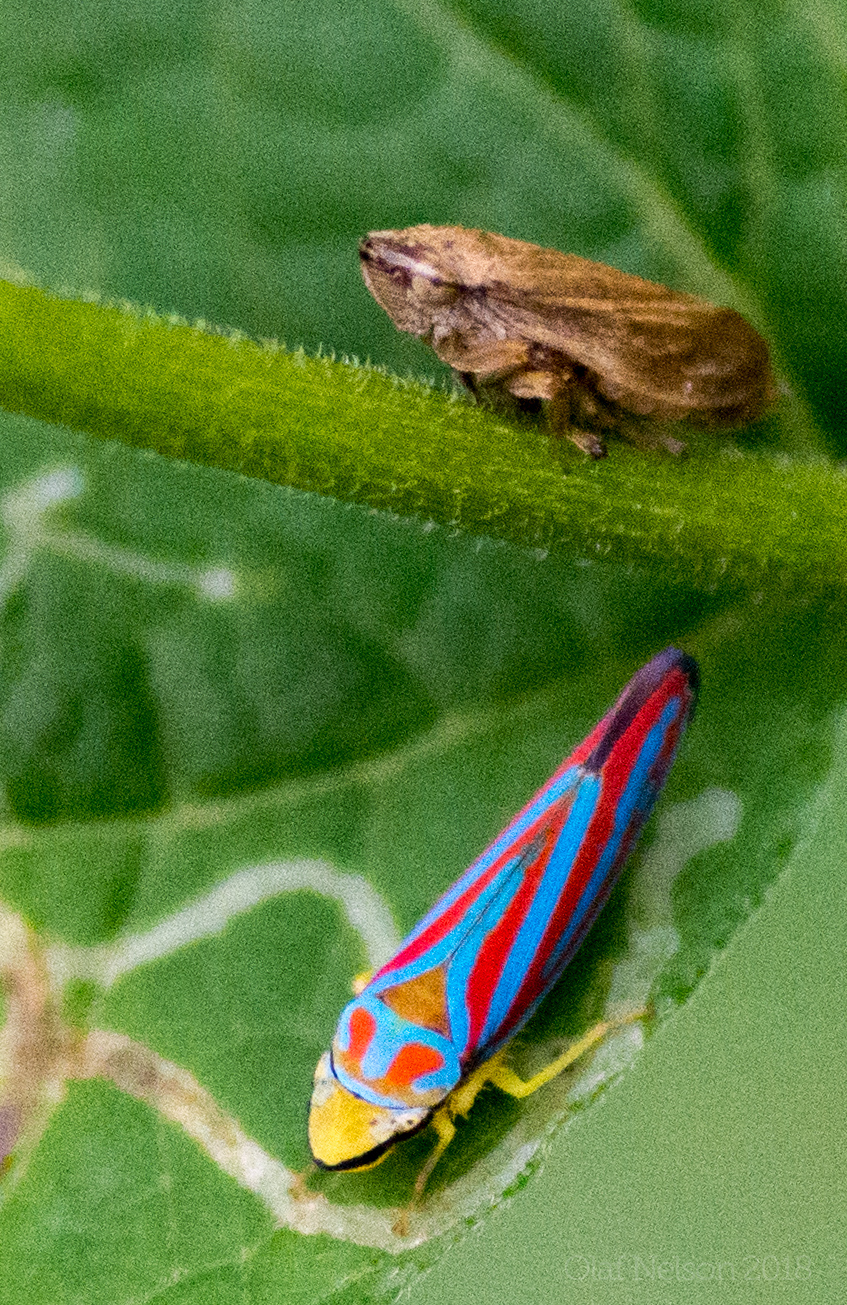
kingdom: Animalia
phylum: Arthropoda
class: Insecta
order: Hemiptera
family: Aphrophoridae
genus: Philaenus
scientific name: Philaenus spumarius
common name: Meadow spittlebug
